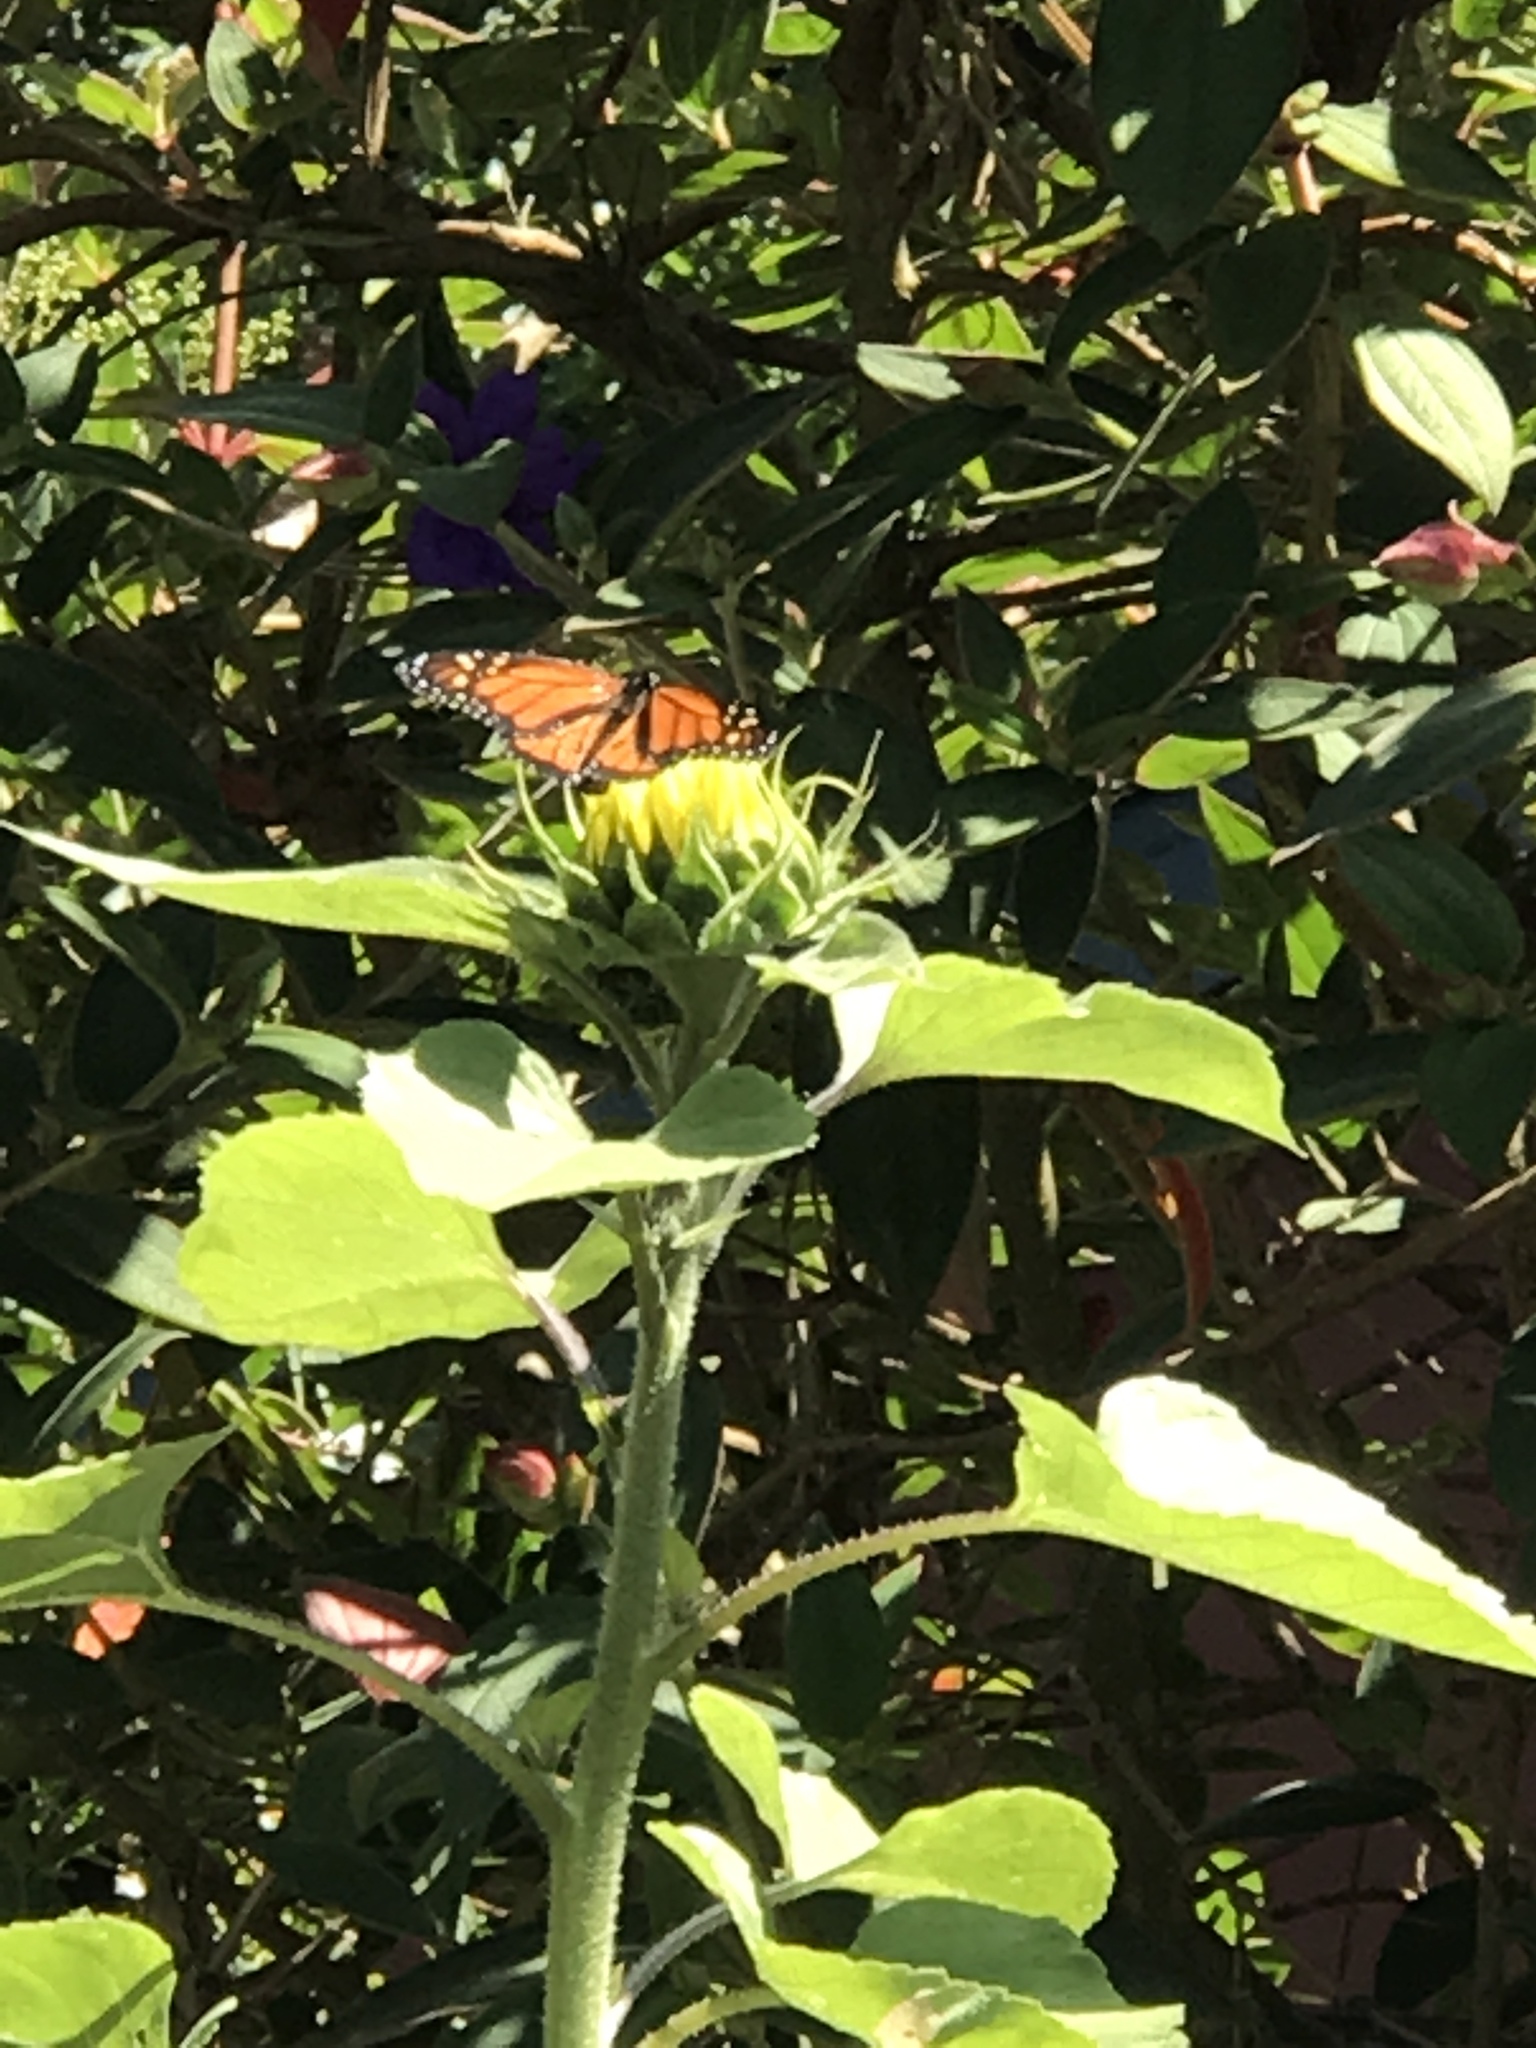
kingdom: Animalia
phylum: Arthropoda
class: Insecta
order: Lepidoptera
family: Nymphalidae
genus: Danaus
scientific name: Danaus plexippus
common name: Monarch
